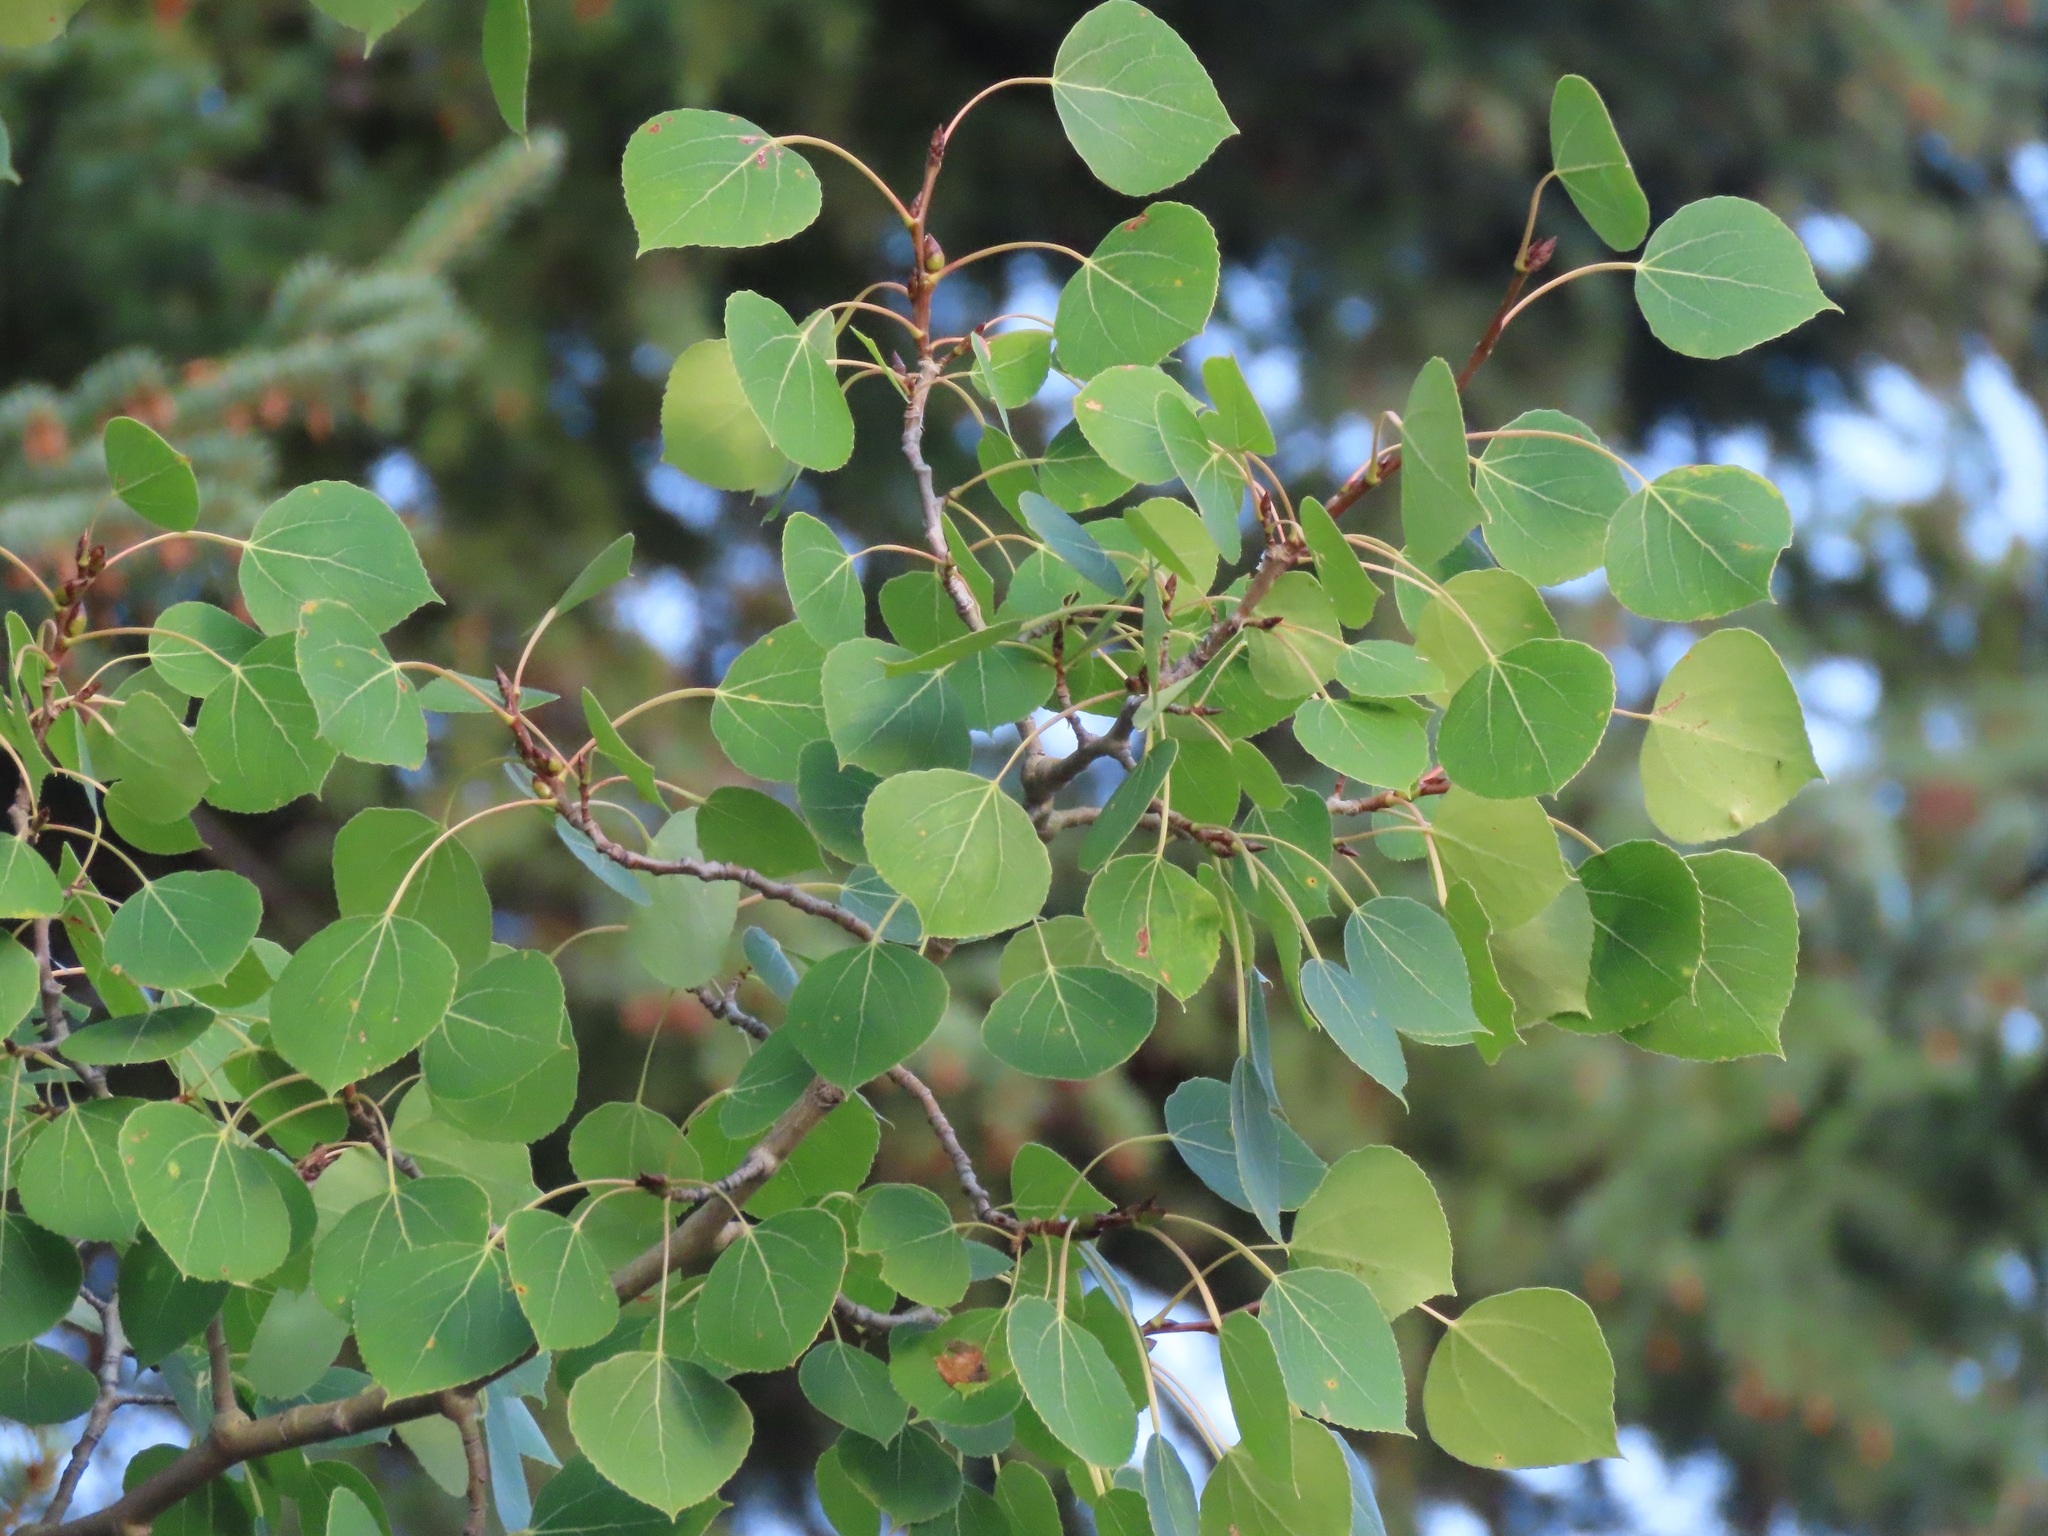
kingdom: Plantae
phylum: Tracheophyta
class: Magnoliopsida
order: Malpighiales
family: Salicaceae
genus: Populus
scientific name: Populus tremuloides
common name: Quaking aspen
